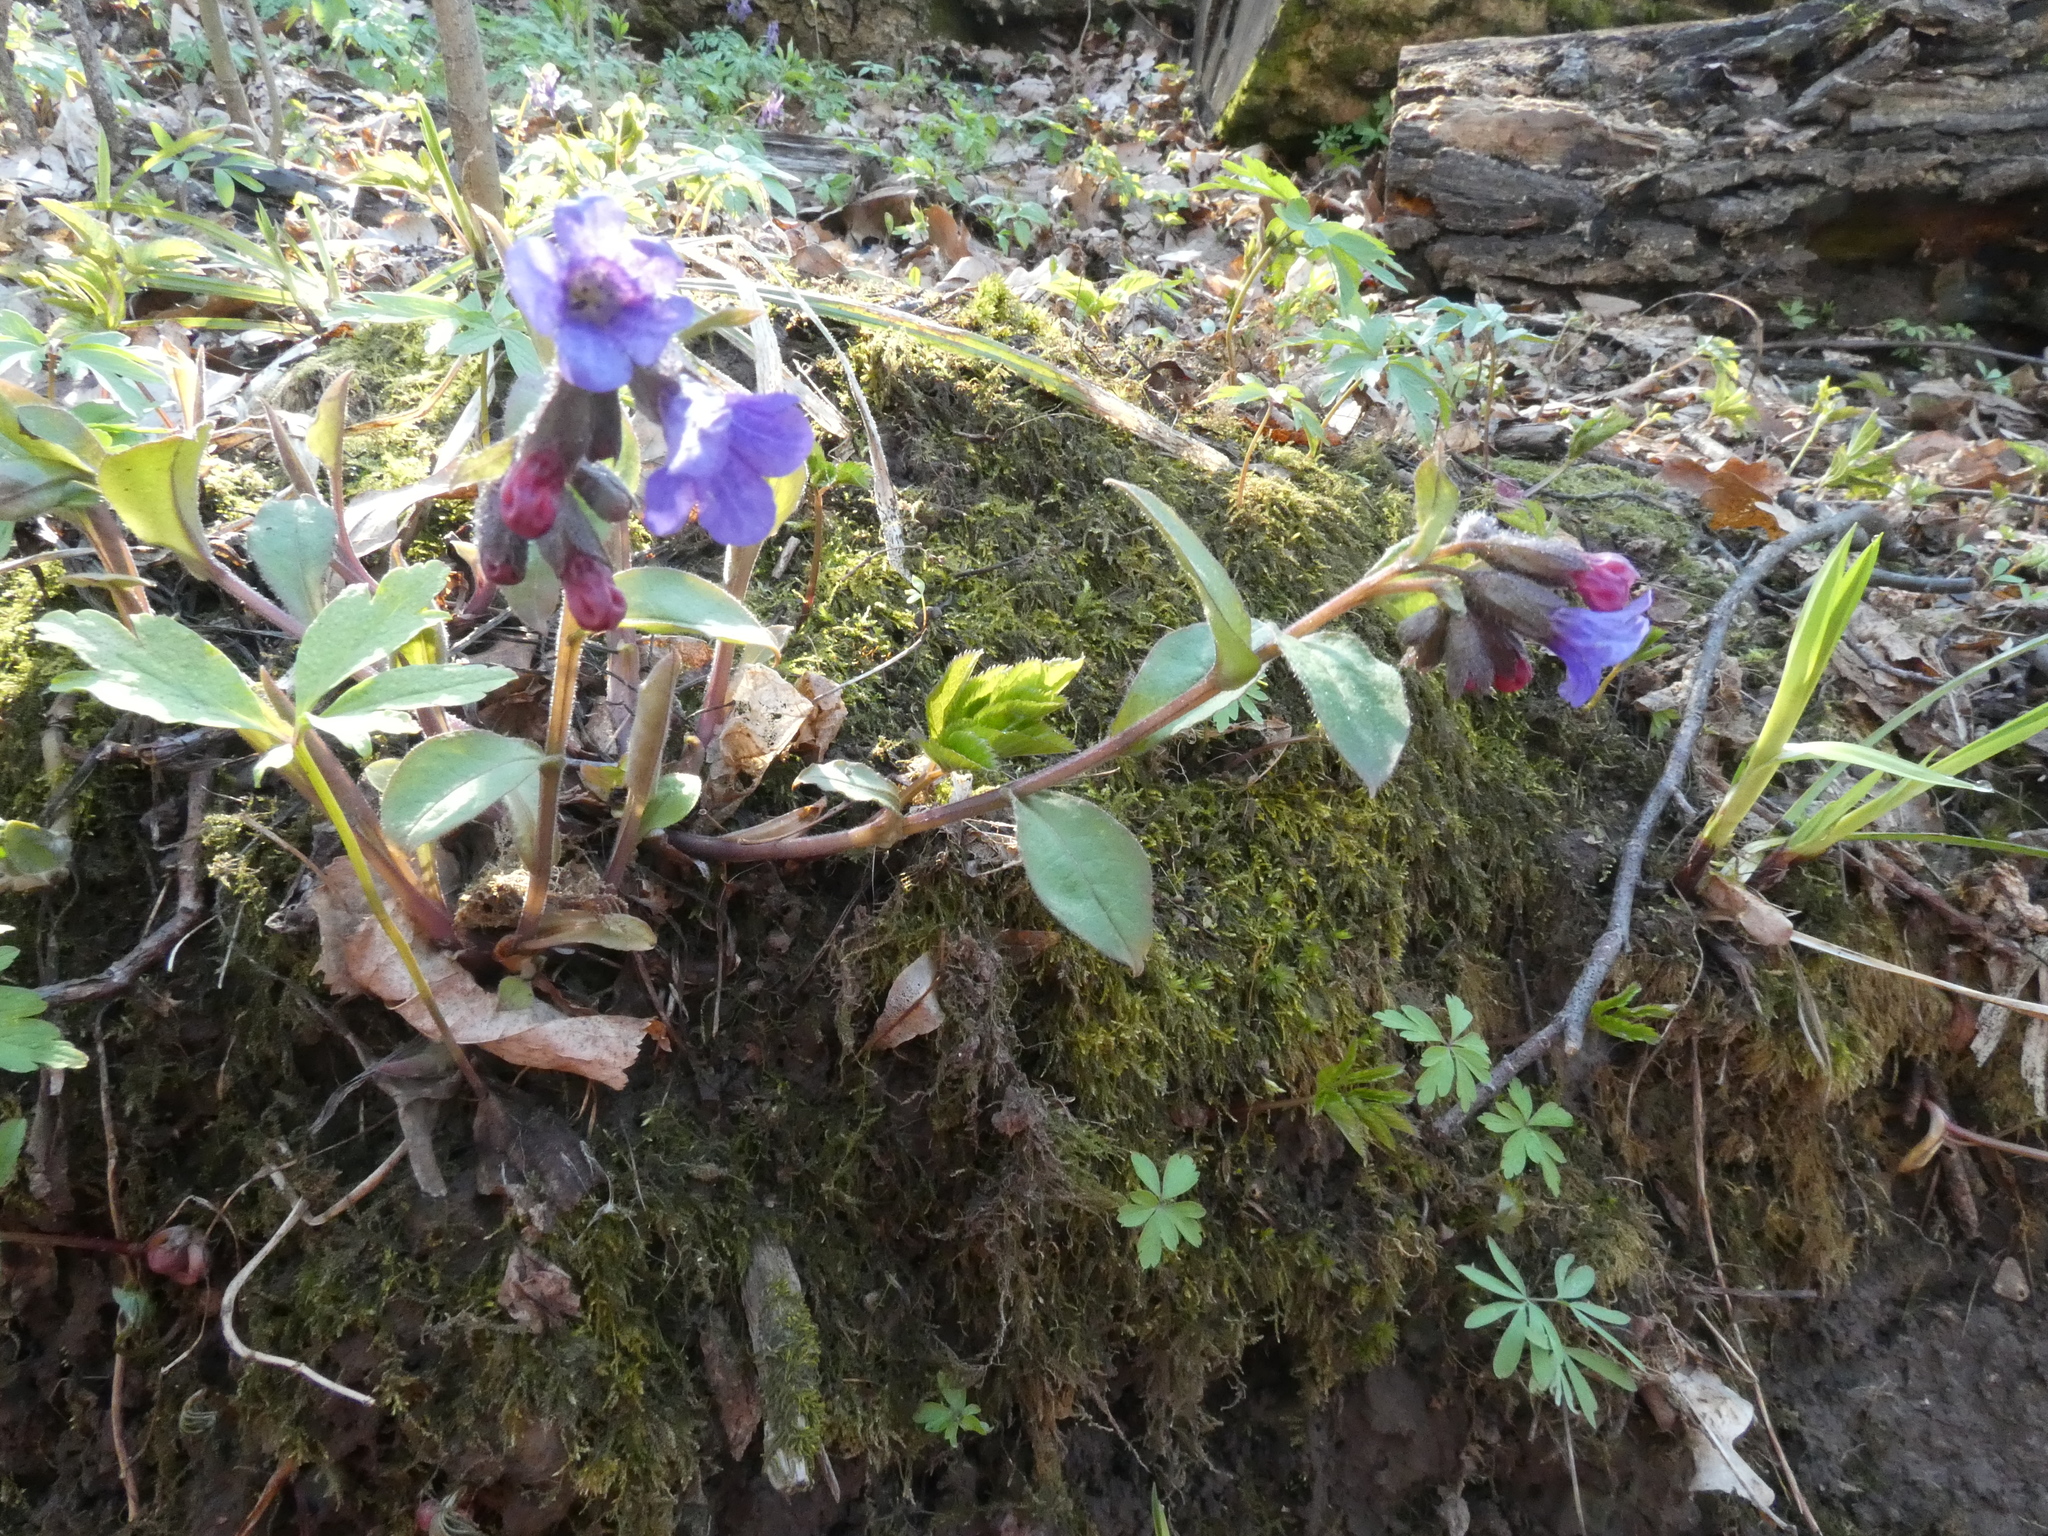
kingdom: Plantae
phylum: Tracheophyta
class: Magnoliopsida
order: Boraginales
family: Boraginaceae
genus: Pulmonaria
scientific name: Pulmonaria obscura
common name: Suffolk lungwort
